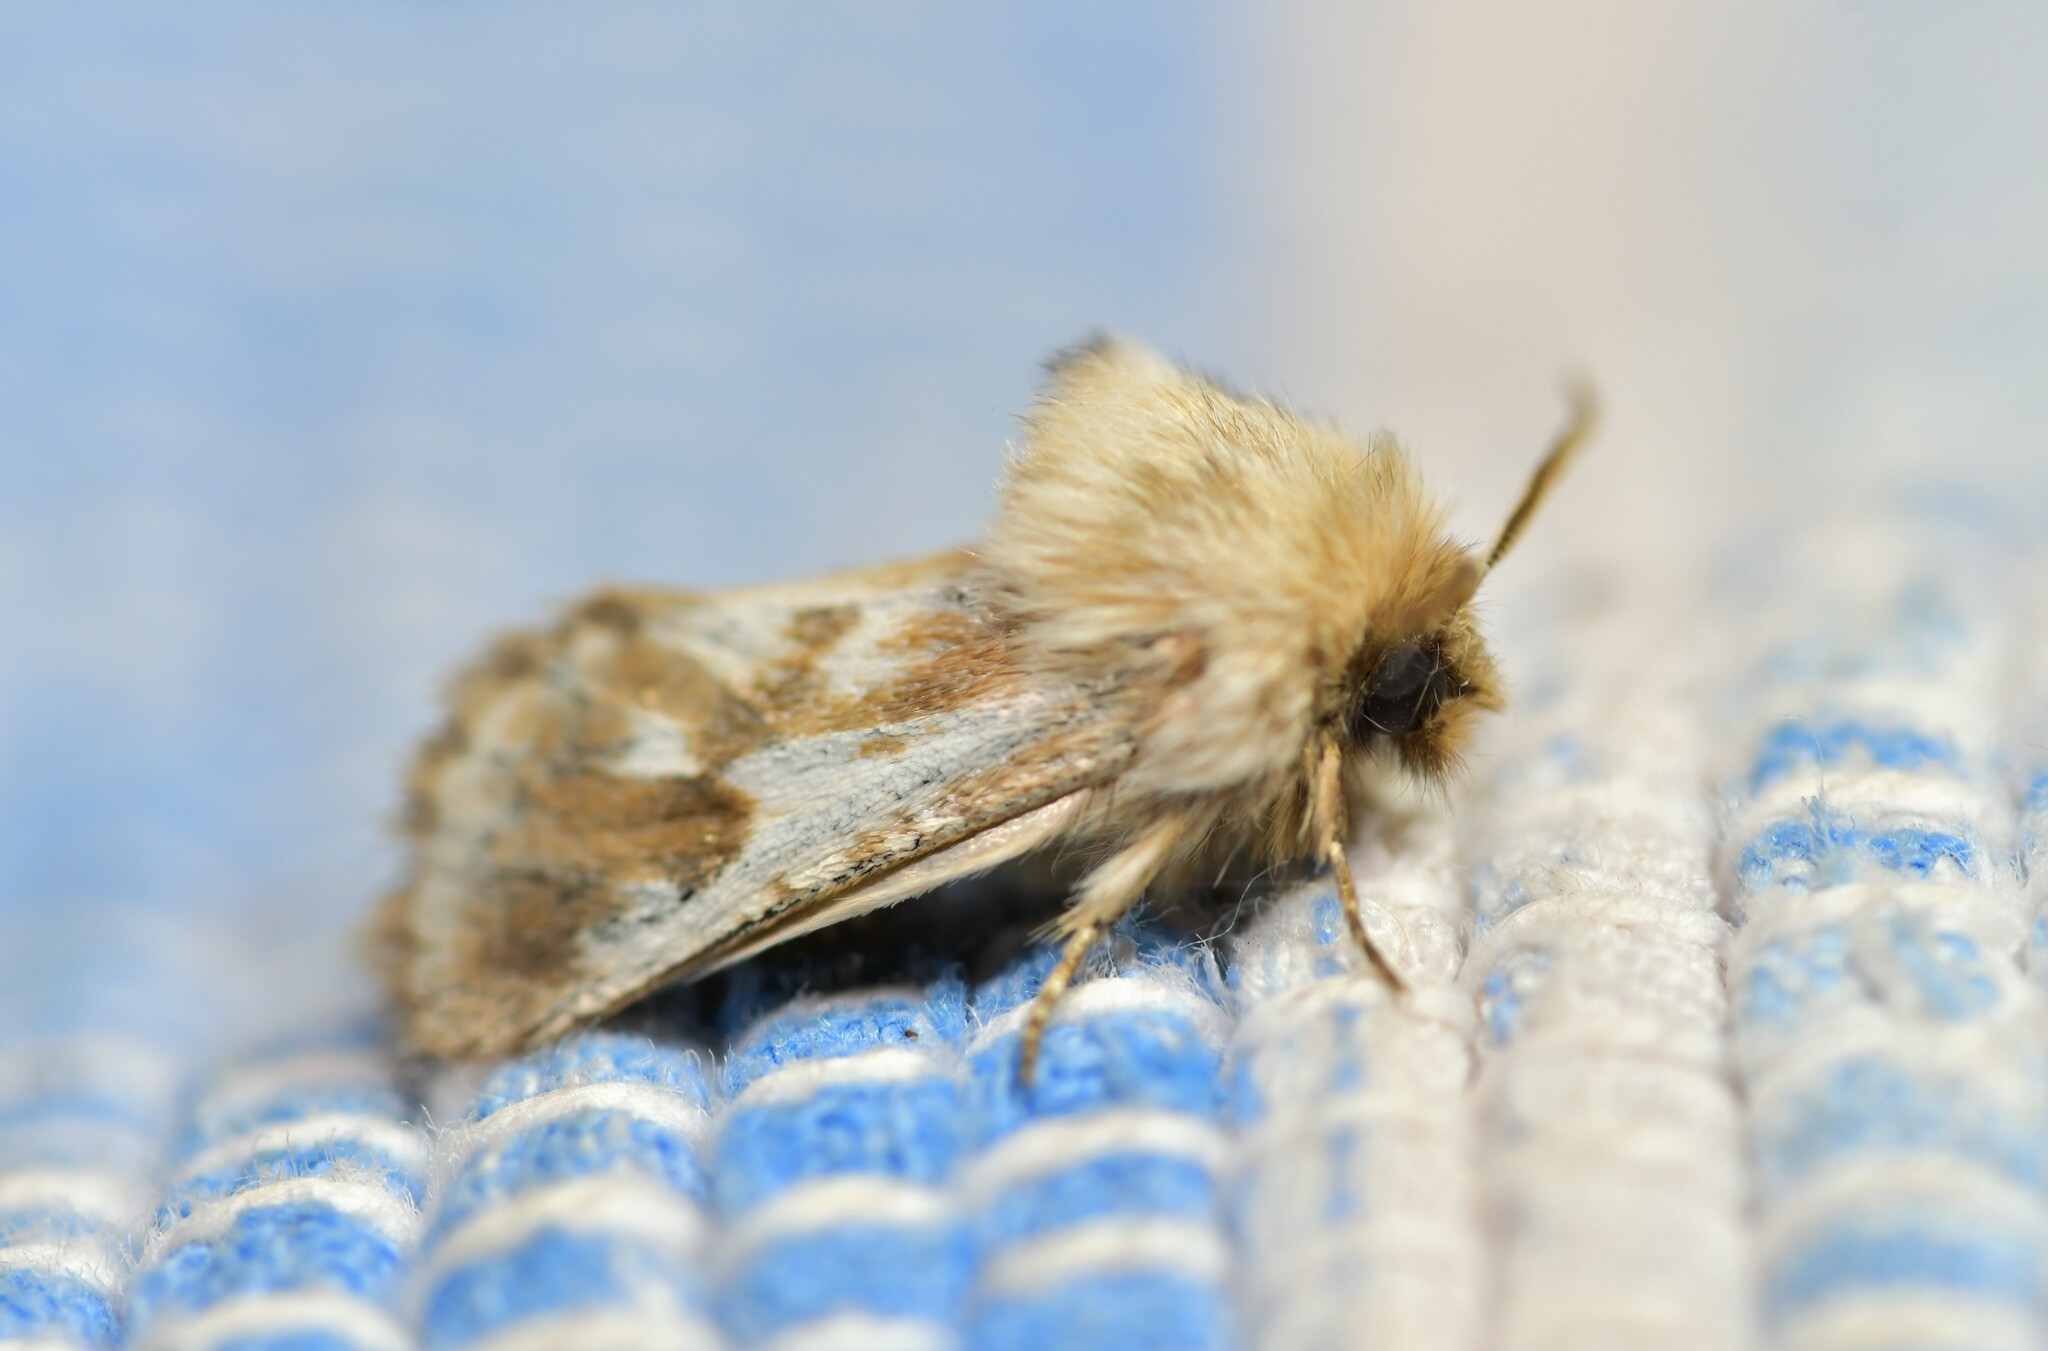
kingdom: Animalia
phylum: Arthropoda
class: Insecta
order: Lepidoptera
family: Cossidae
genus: Dyspessa
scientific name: Dyspessa ulula
